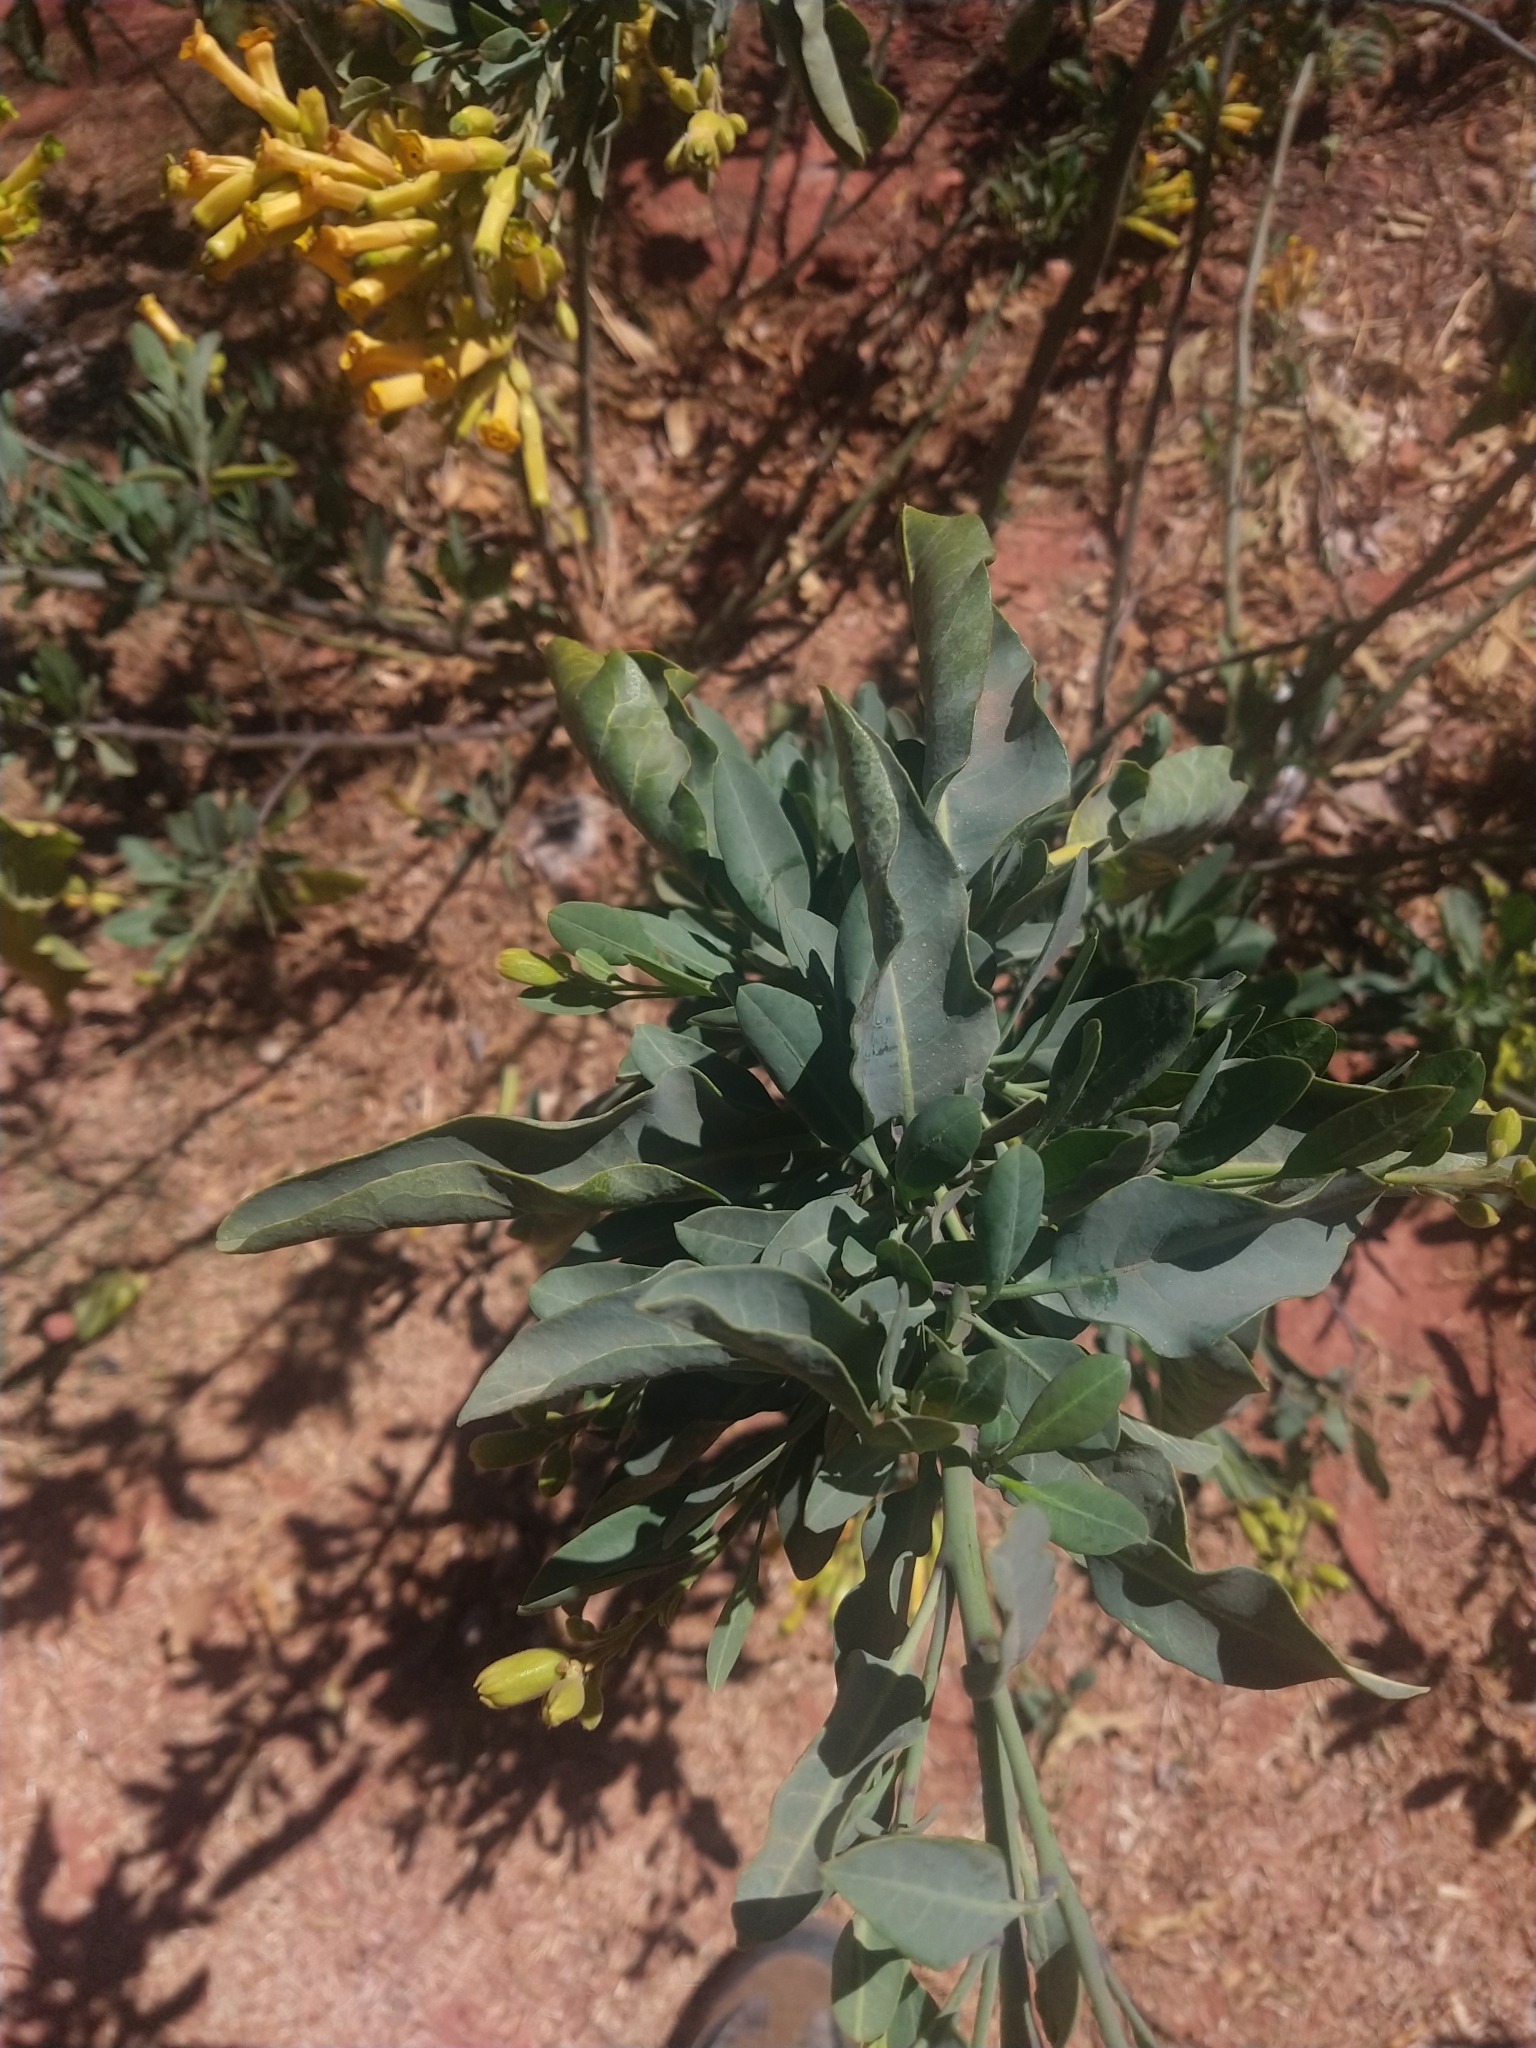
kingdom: Plantae
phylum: Tracheophyta
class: Magnoliopsida
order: Solanales
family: Solanaceae
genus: Nicotiana
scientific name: Nicotiana glauca
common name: Tree tobacco
